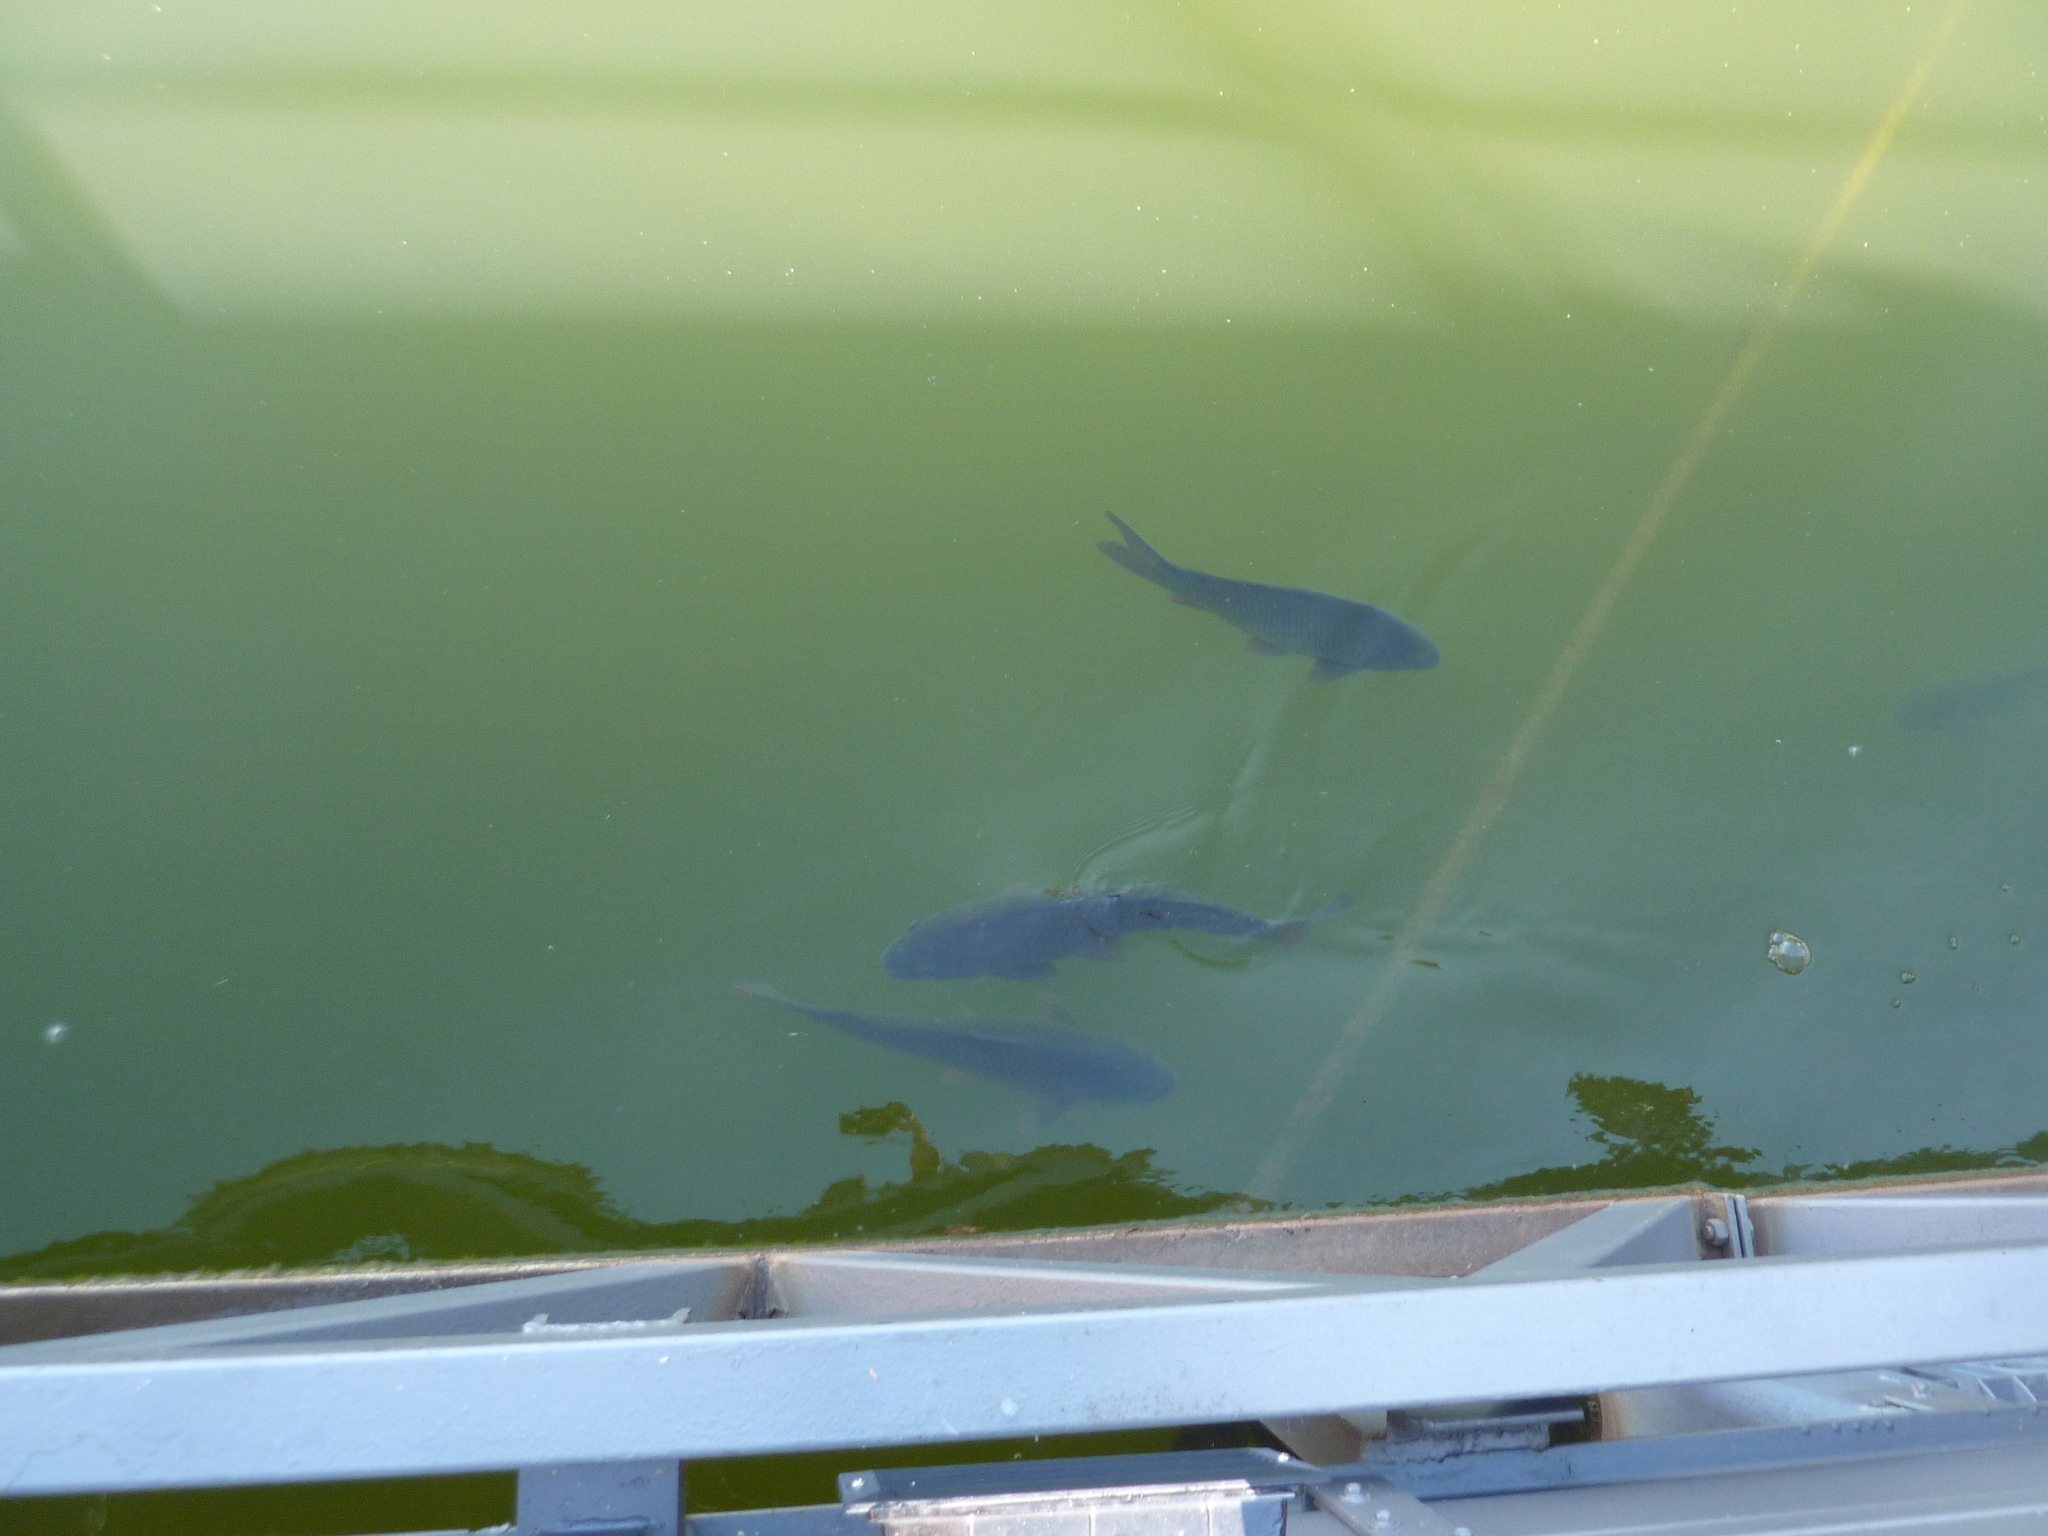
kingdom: Animalia
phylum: Chordata
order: Cypriniformes
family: Cyprinidae
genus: Cyprinus
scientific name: Cyprinus carpio
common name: Common carp
